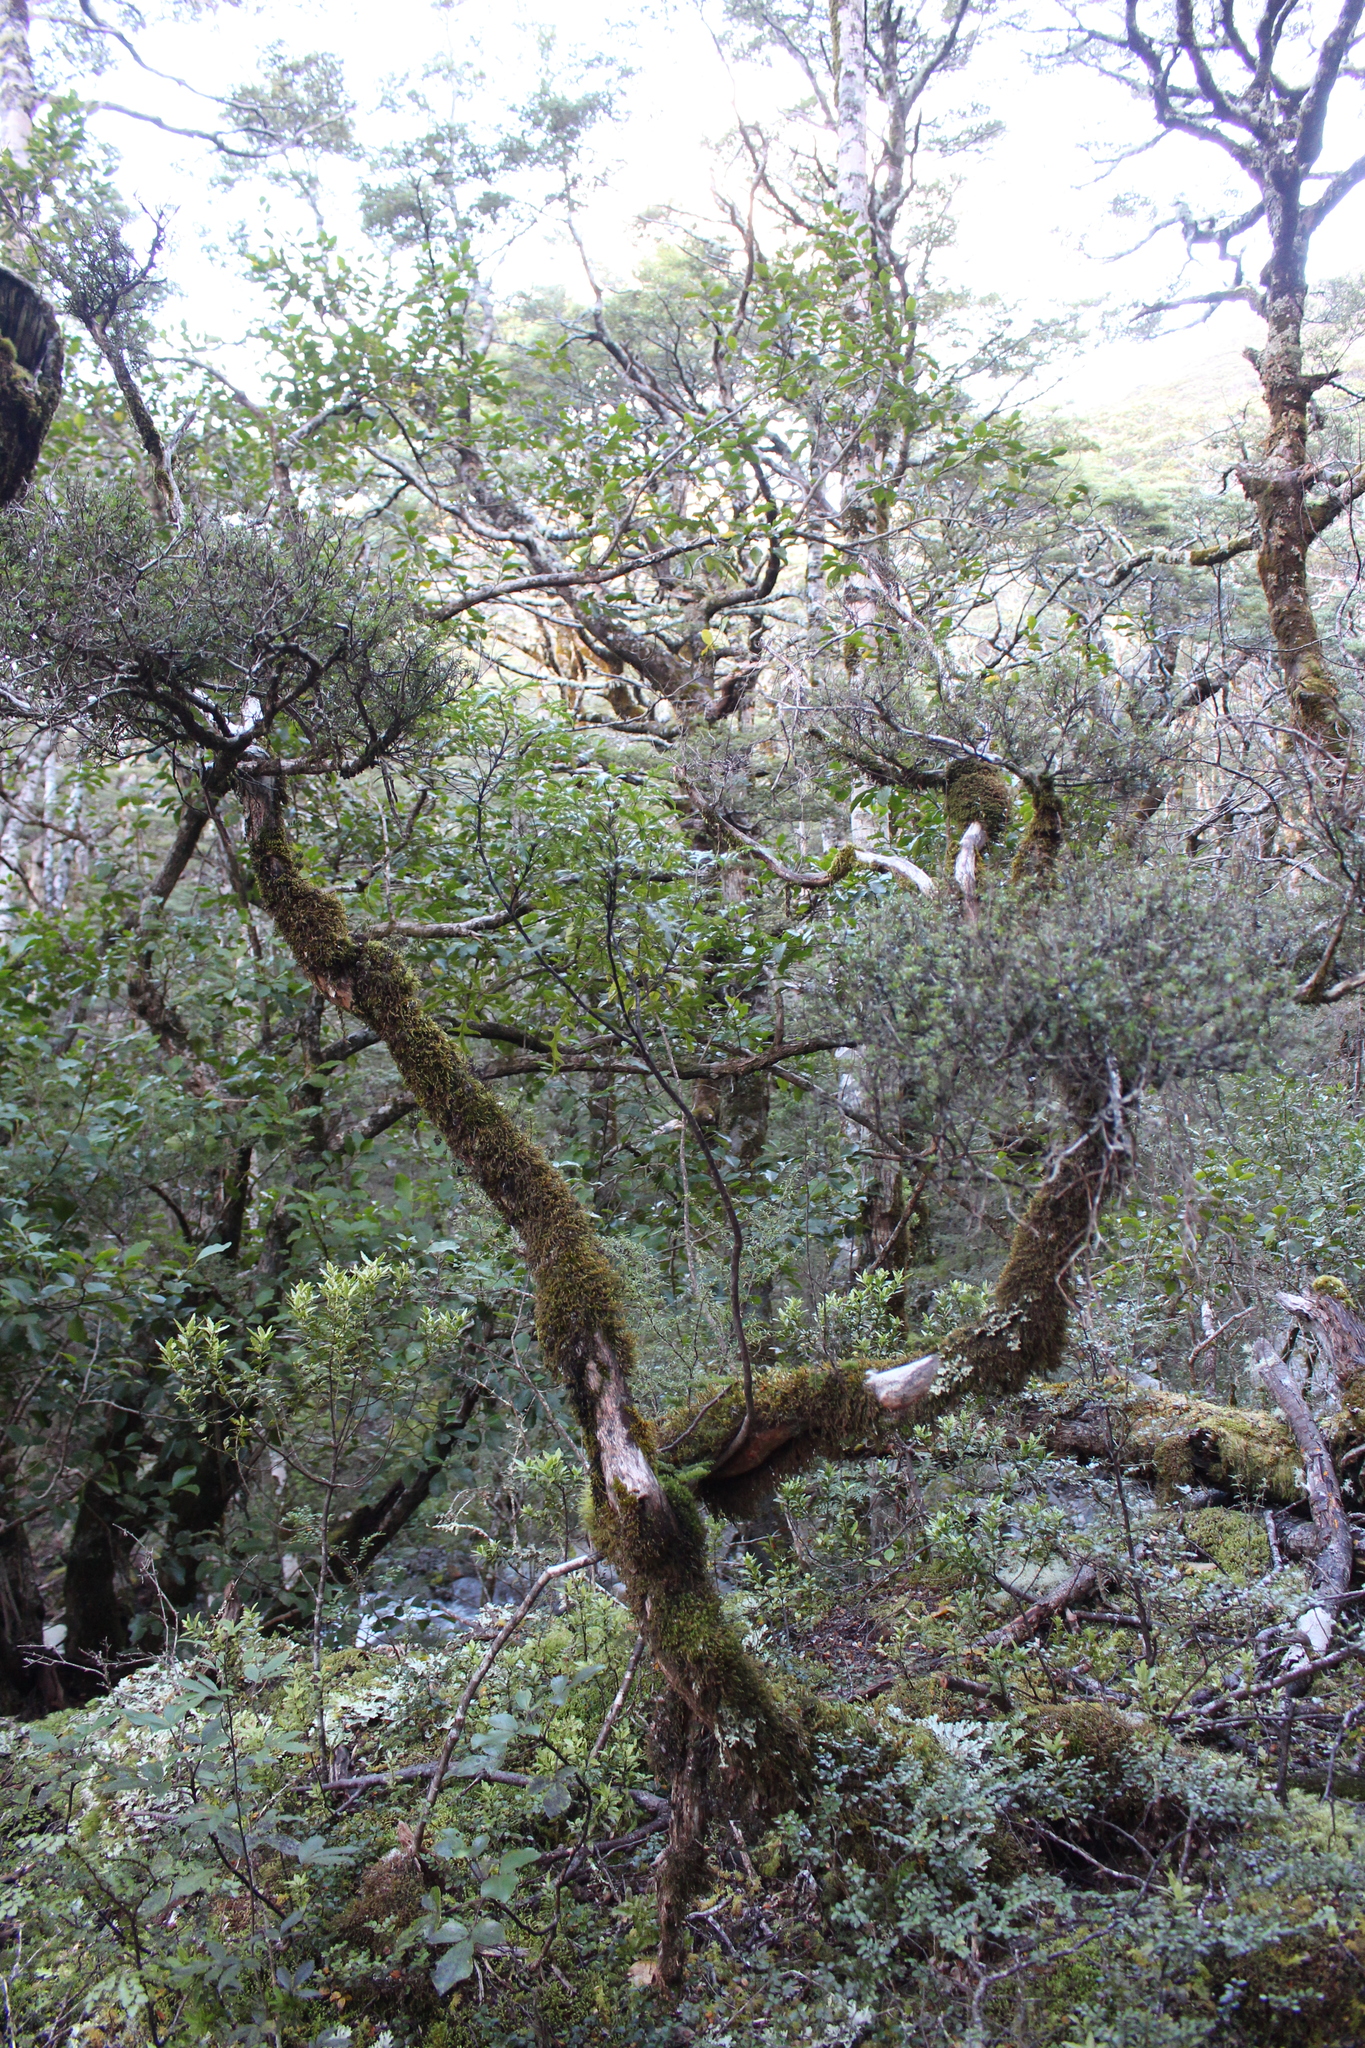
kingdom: Plantae
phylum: Tracheophyta
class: Magnoliopsida
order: Apiales
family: Araliaceae
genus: Raukaua
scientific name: Raukaua simplex
